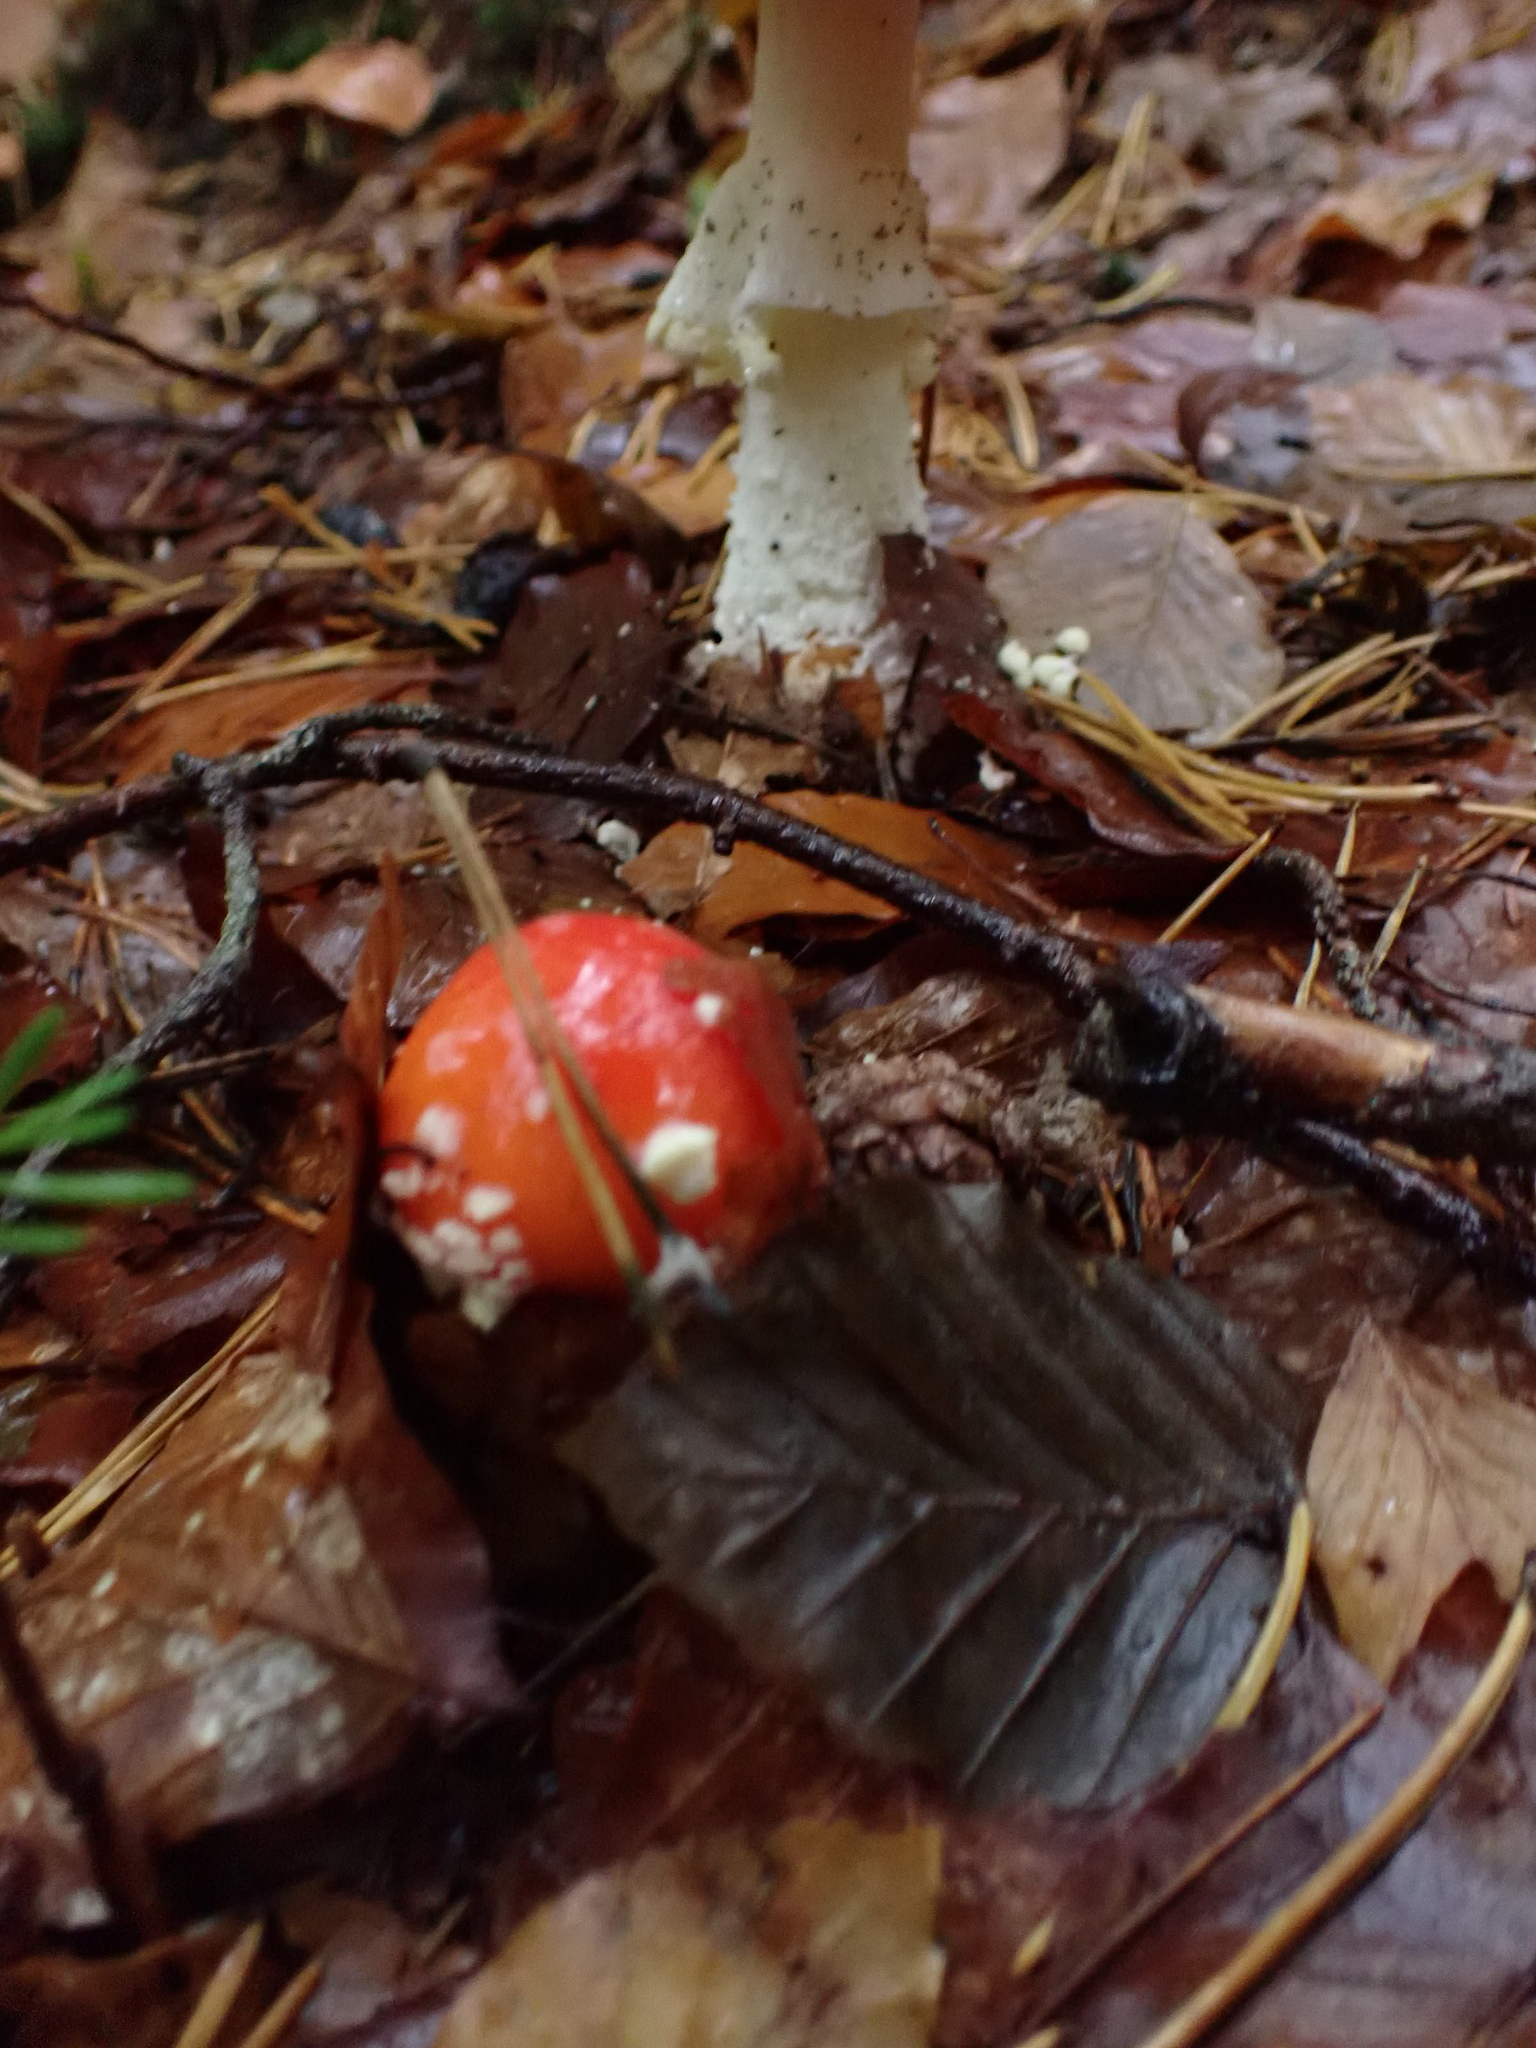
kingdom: Fungi
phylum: Basidiomycota
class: Agaricomycetes
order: Agaricales
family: Amanitaceae
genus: Amanita
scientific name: Amanita muscaria
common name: Fly agaric
